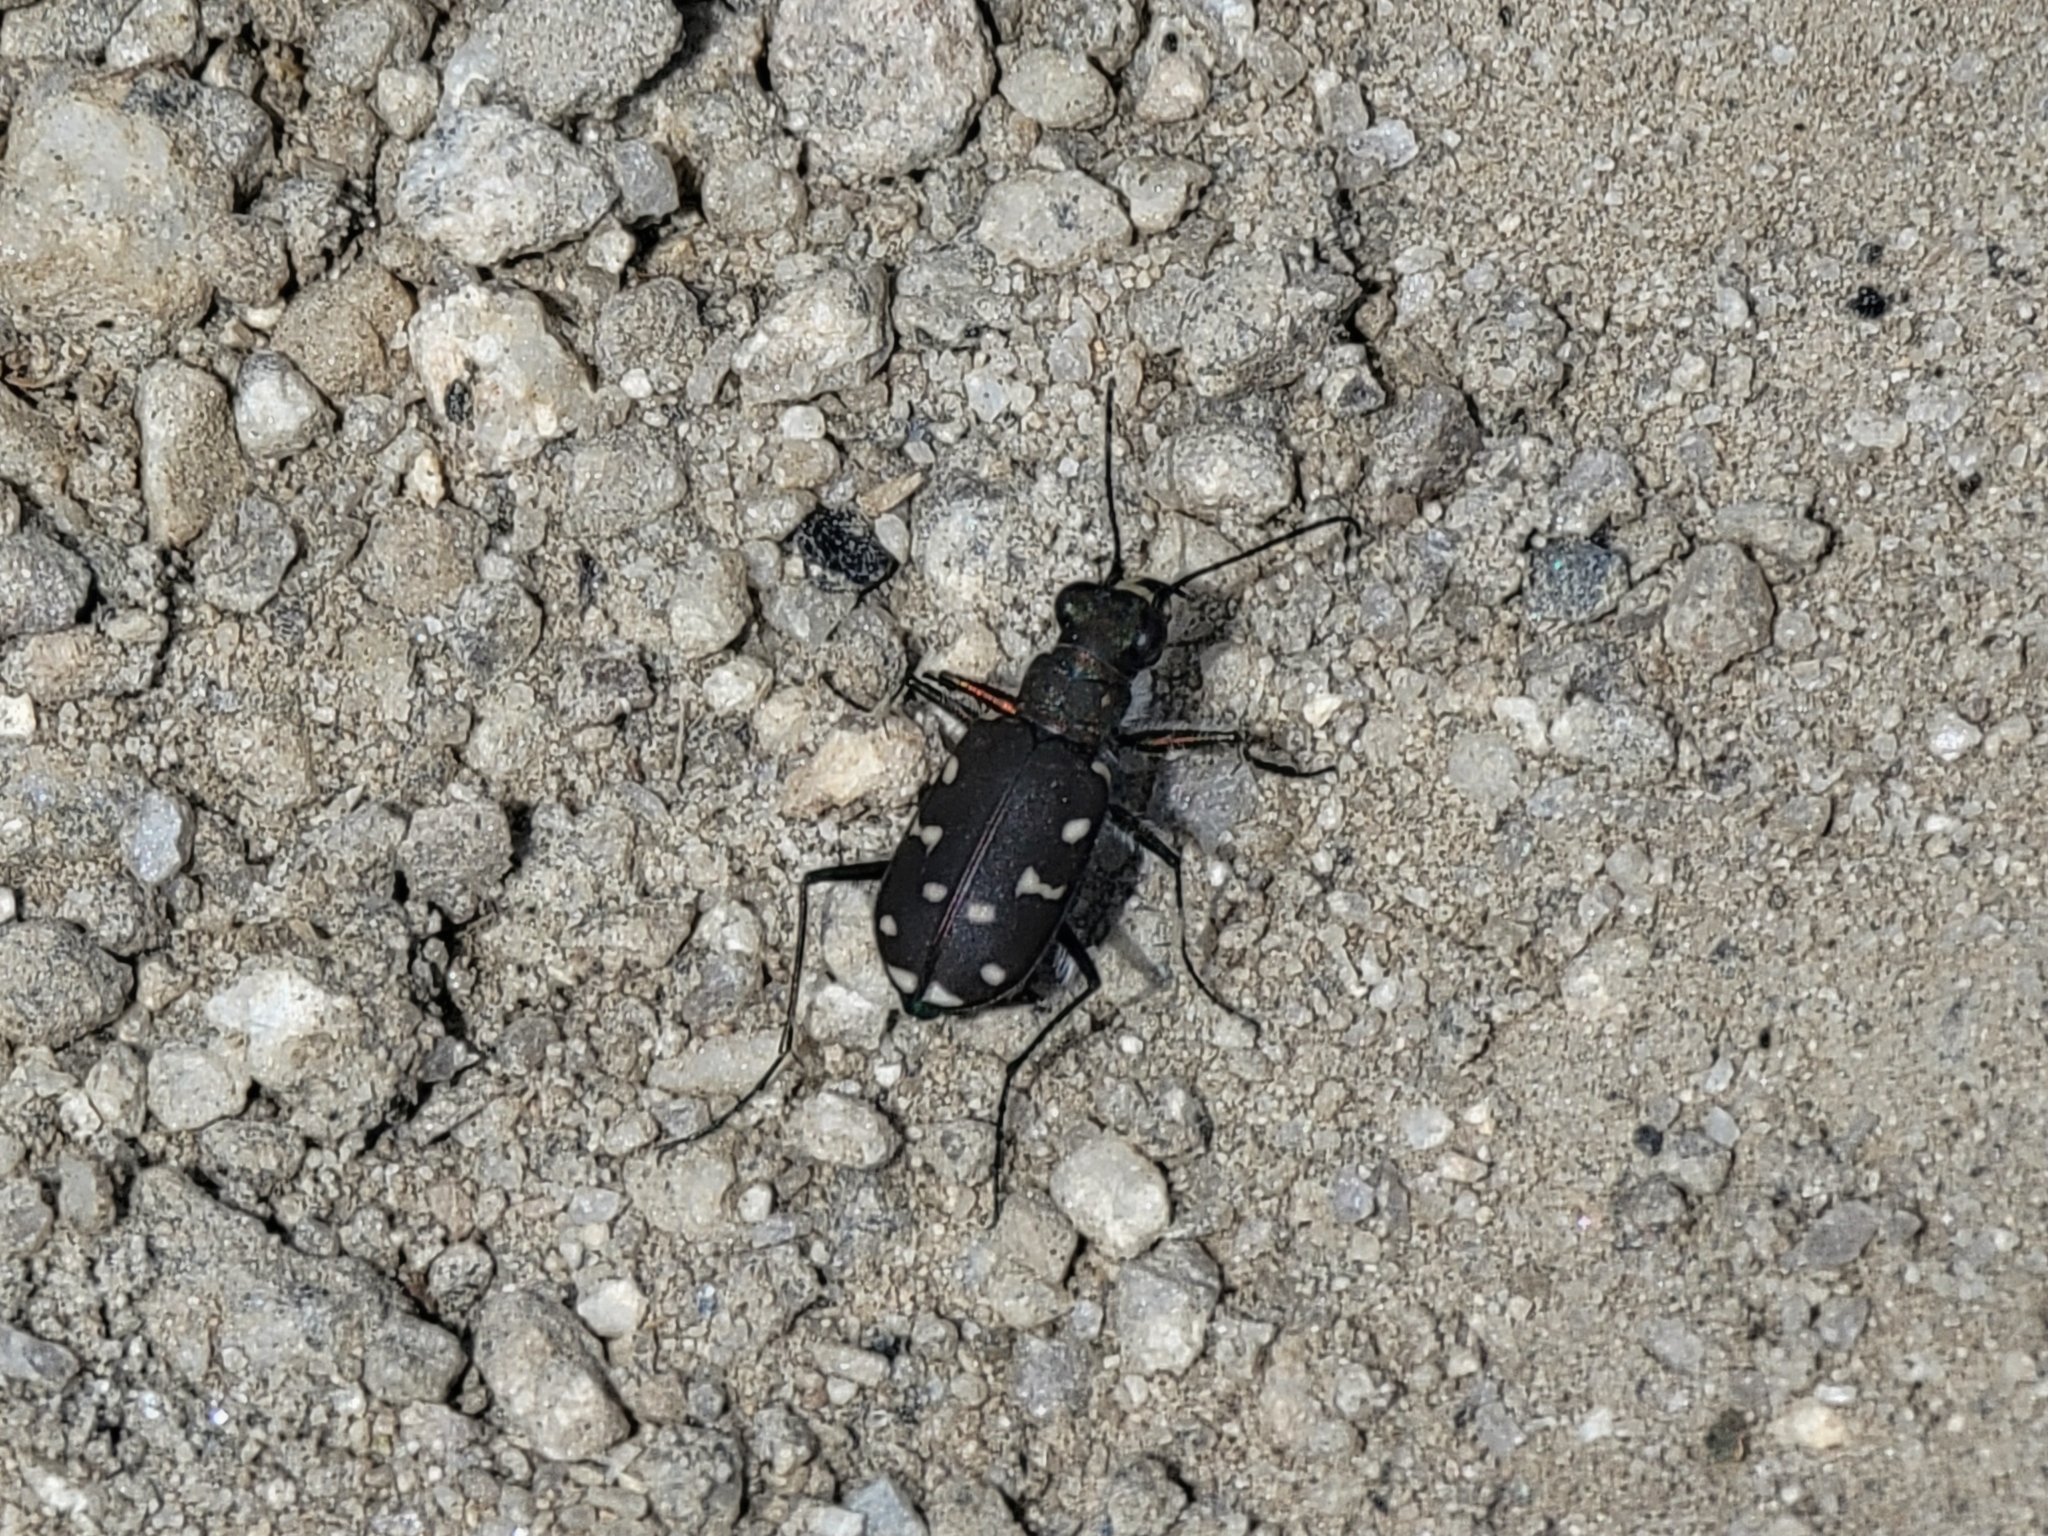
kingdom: Animalia
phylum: Arthropoda
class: Insecta
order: Coleoptera
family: Carabidae
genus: Cicindela
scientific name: Cicindela oregona
